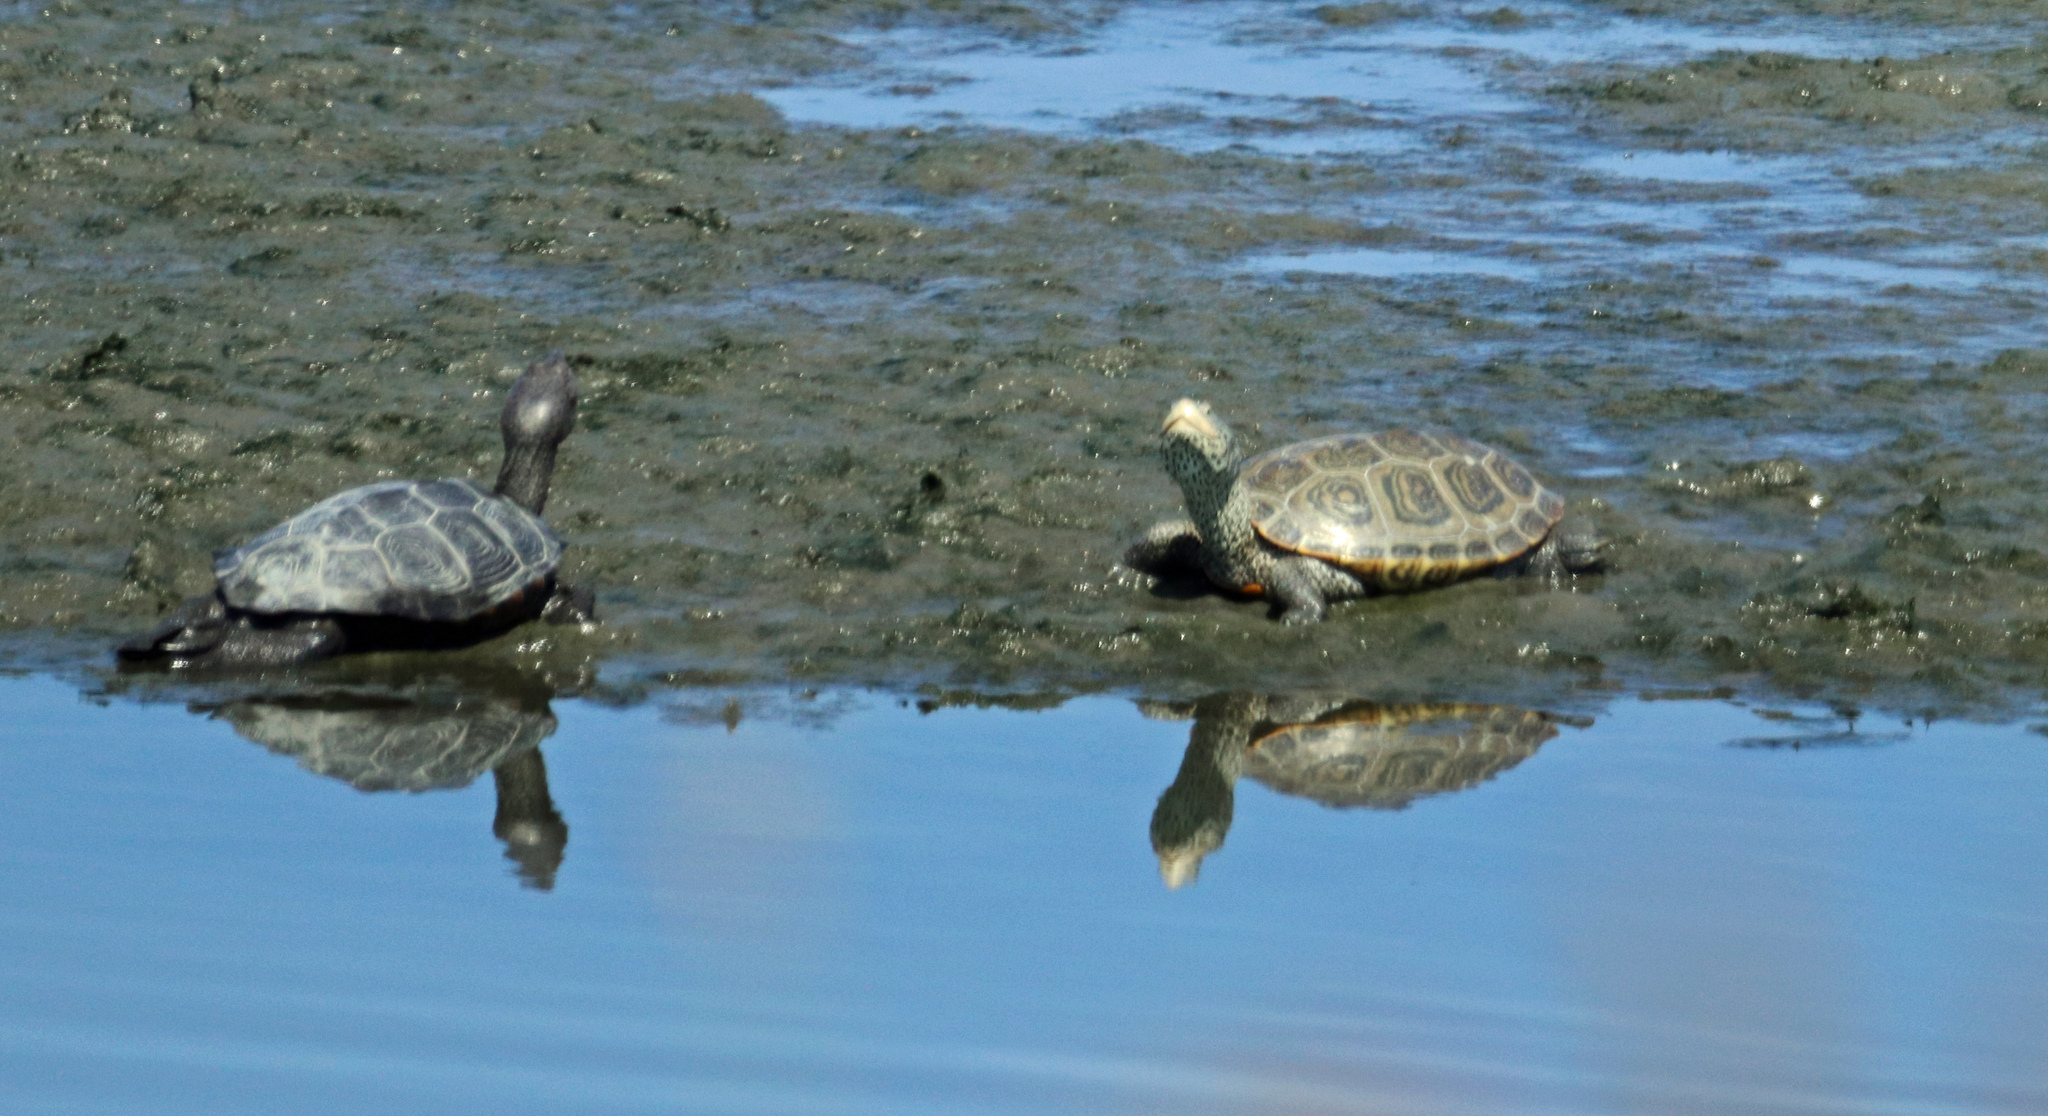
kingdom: Animalia
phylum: Chordata
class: Testudines
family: Emydidae
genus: Malaclemys
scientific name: Malaclemys terrapin
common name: Diamondback terrapin
